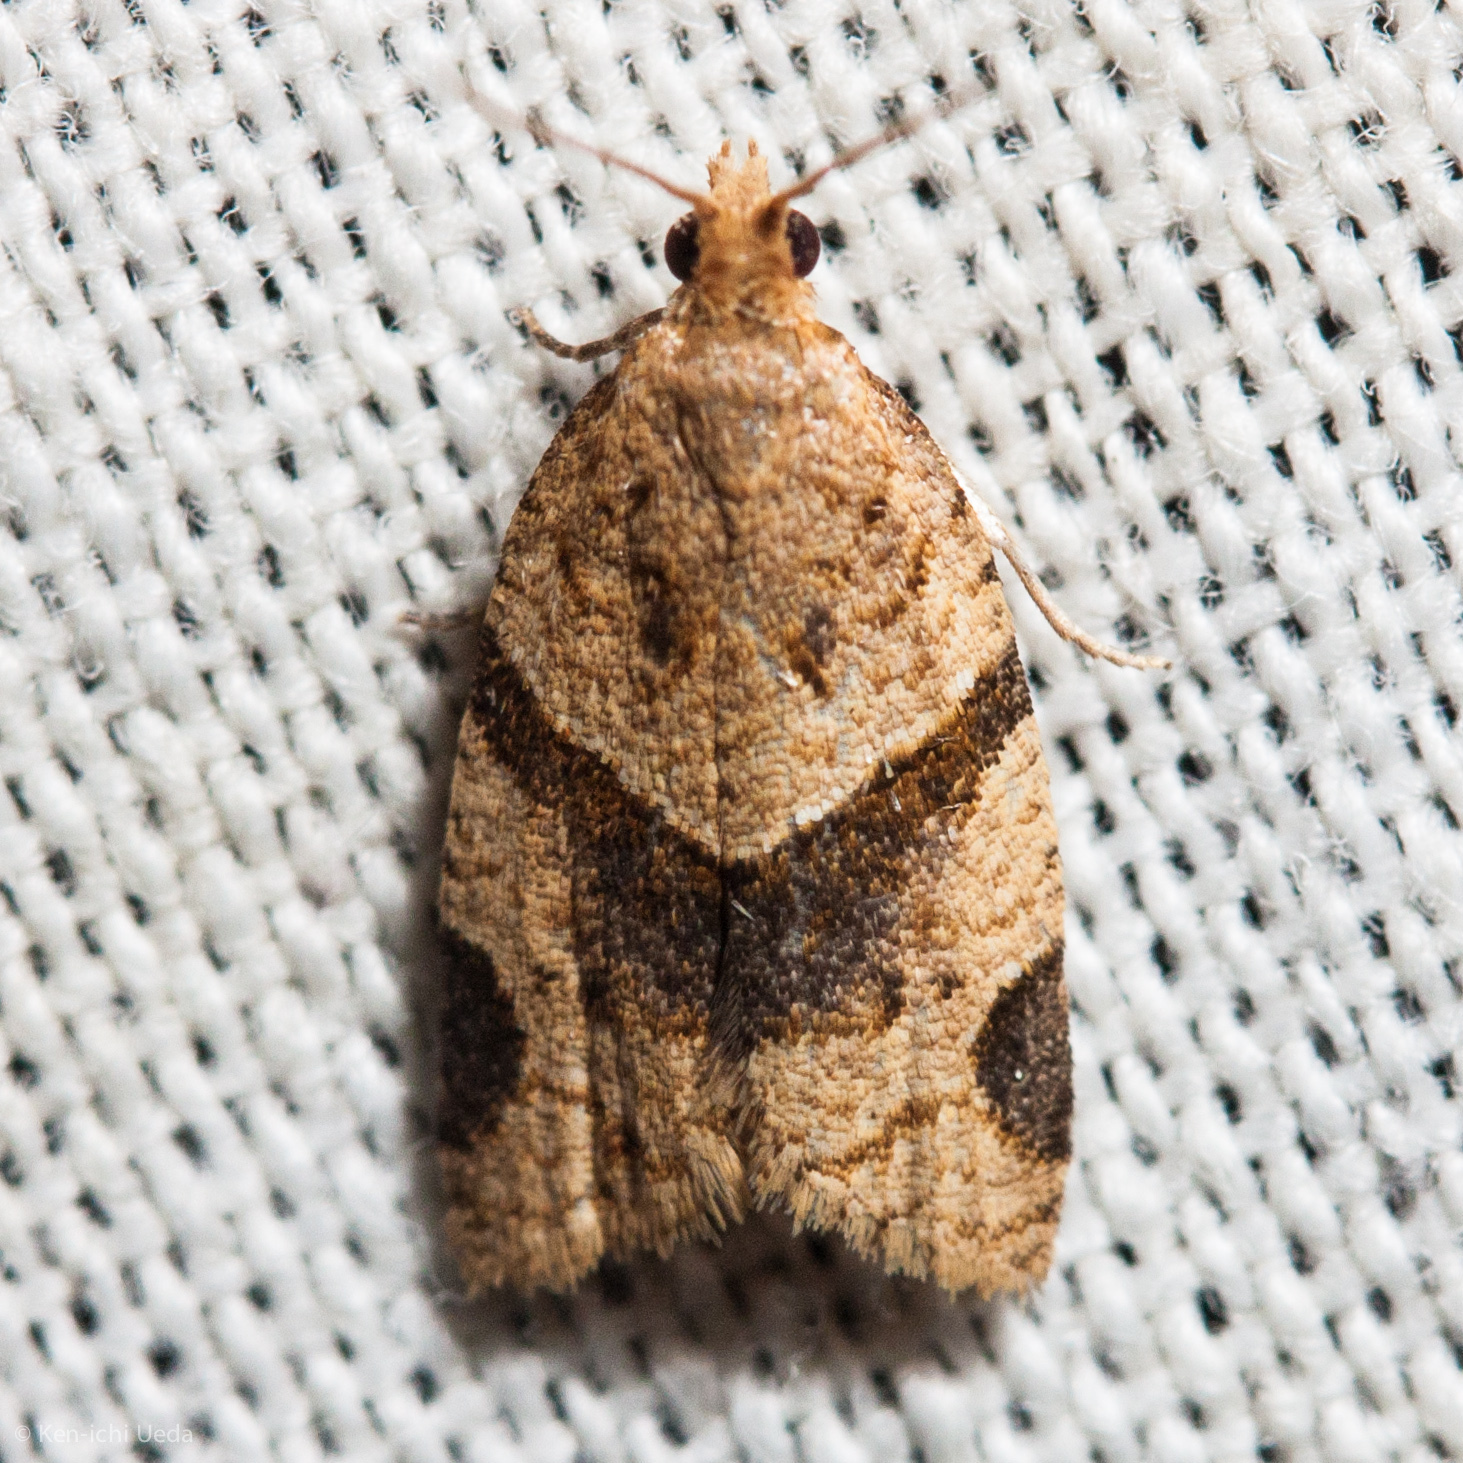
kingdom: Animalia
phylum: Arthropoda
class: Insecta
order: Lepidoptera
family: Tortricidae
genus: Clepsis
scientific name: Clepsis peritana
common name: Garden tortrix
